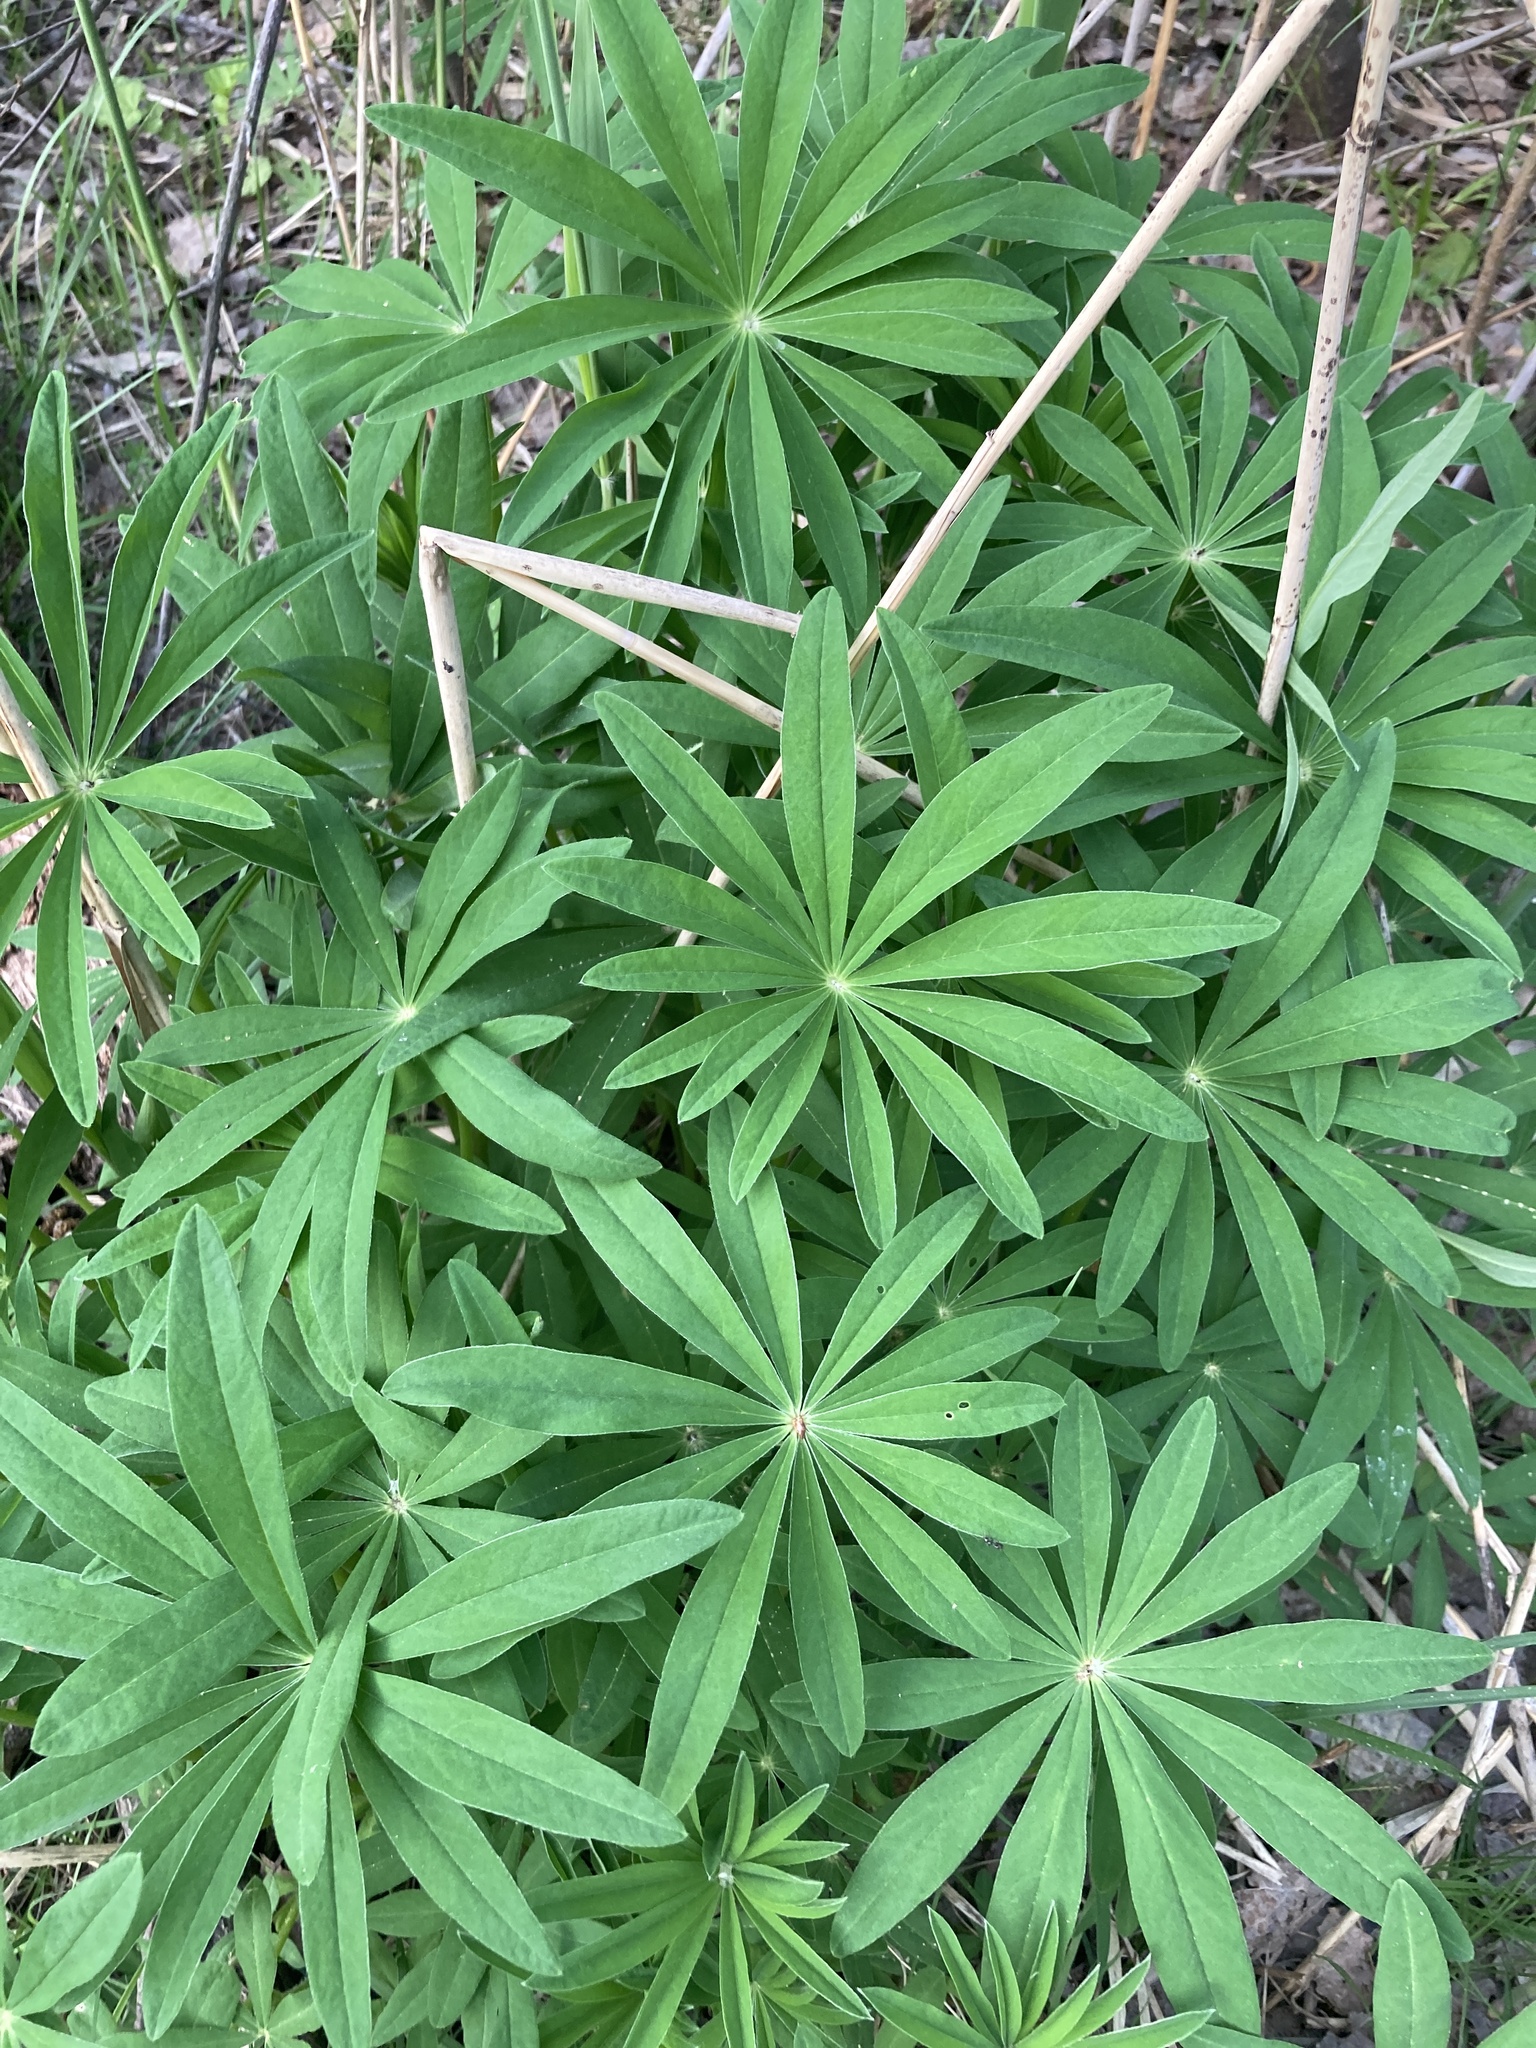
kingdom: Plantae
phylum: Tracheophyta
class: Magnoliopsida
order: Fabales
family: Fabaceae
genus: Lupinus
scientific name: Lupinus polyphyllus
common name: Garden lupin
